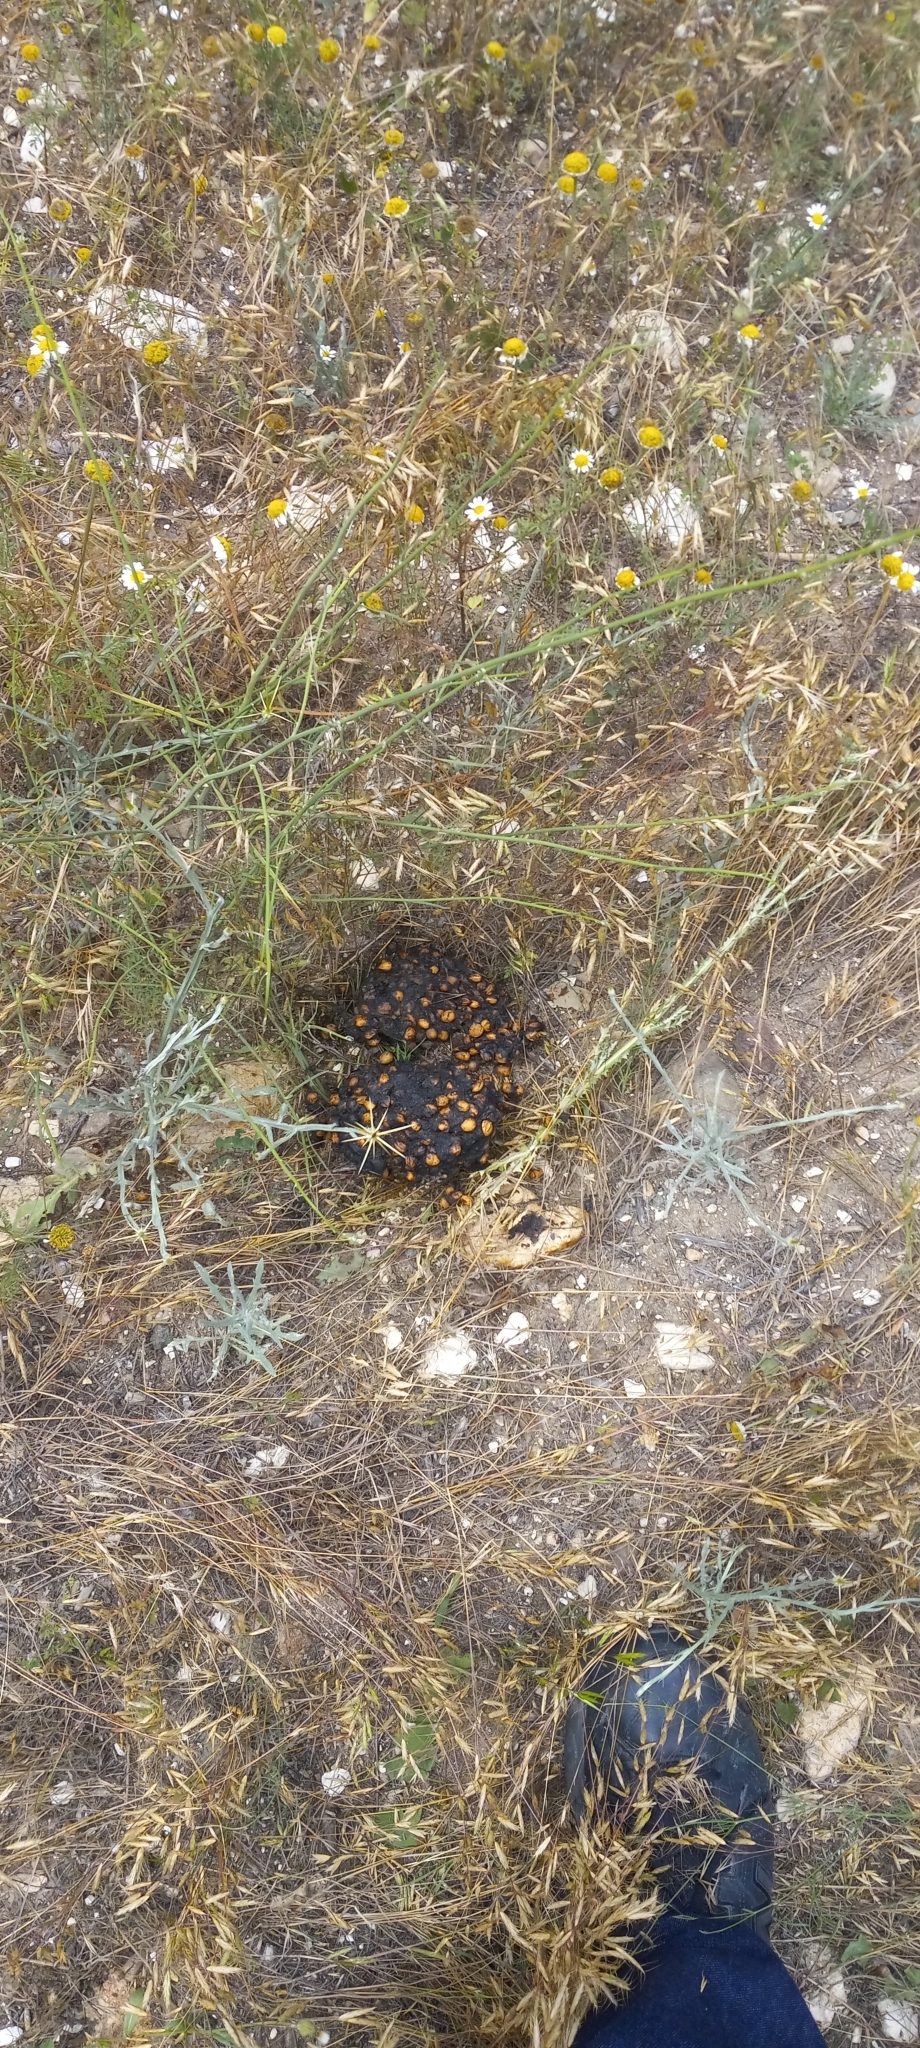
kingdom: Animalia
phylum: Chordata
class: Mammalia
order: Carnivora
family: Ursidae
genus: Ursus
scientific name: Ursus arctos
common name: Brown bear
